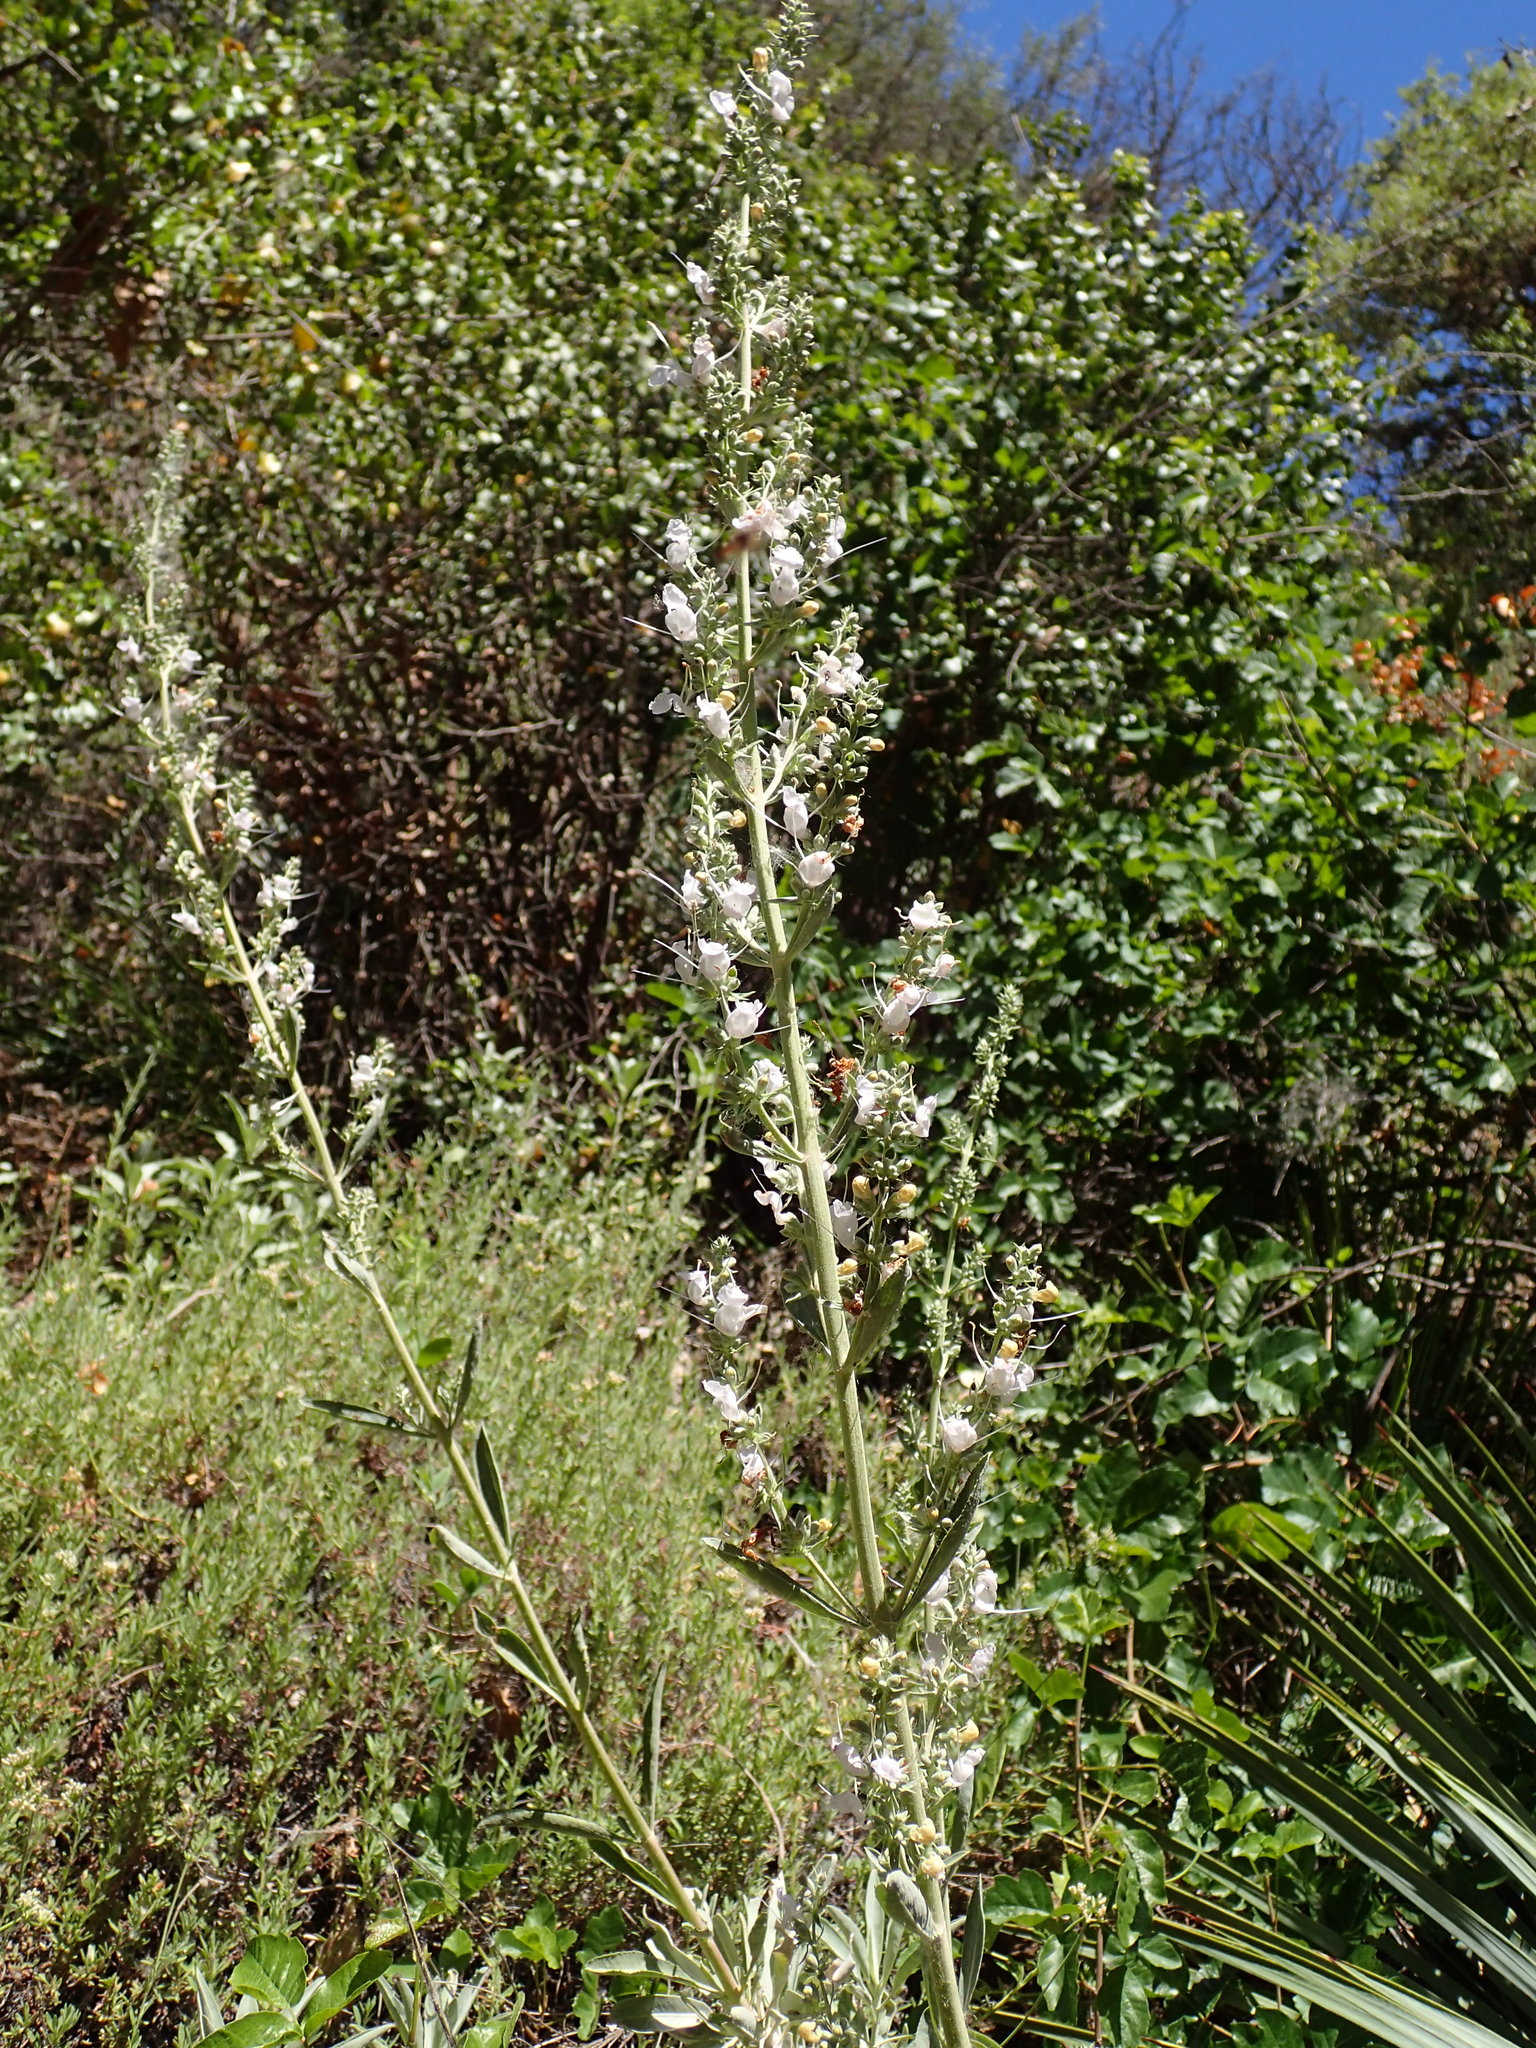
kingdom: Plantae
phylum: Tracheophyta
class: Magnoliopsida
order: Lamiales
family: Lamiaceae
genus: Salvia
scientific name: Salvia apiana
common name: White sage
